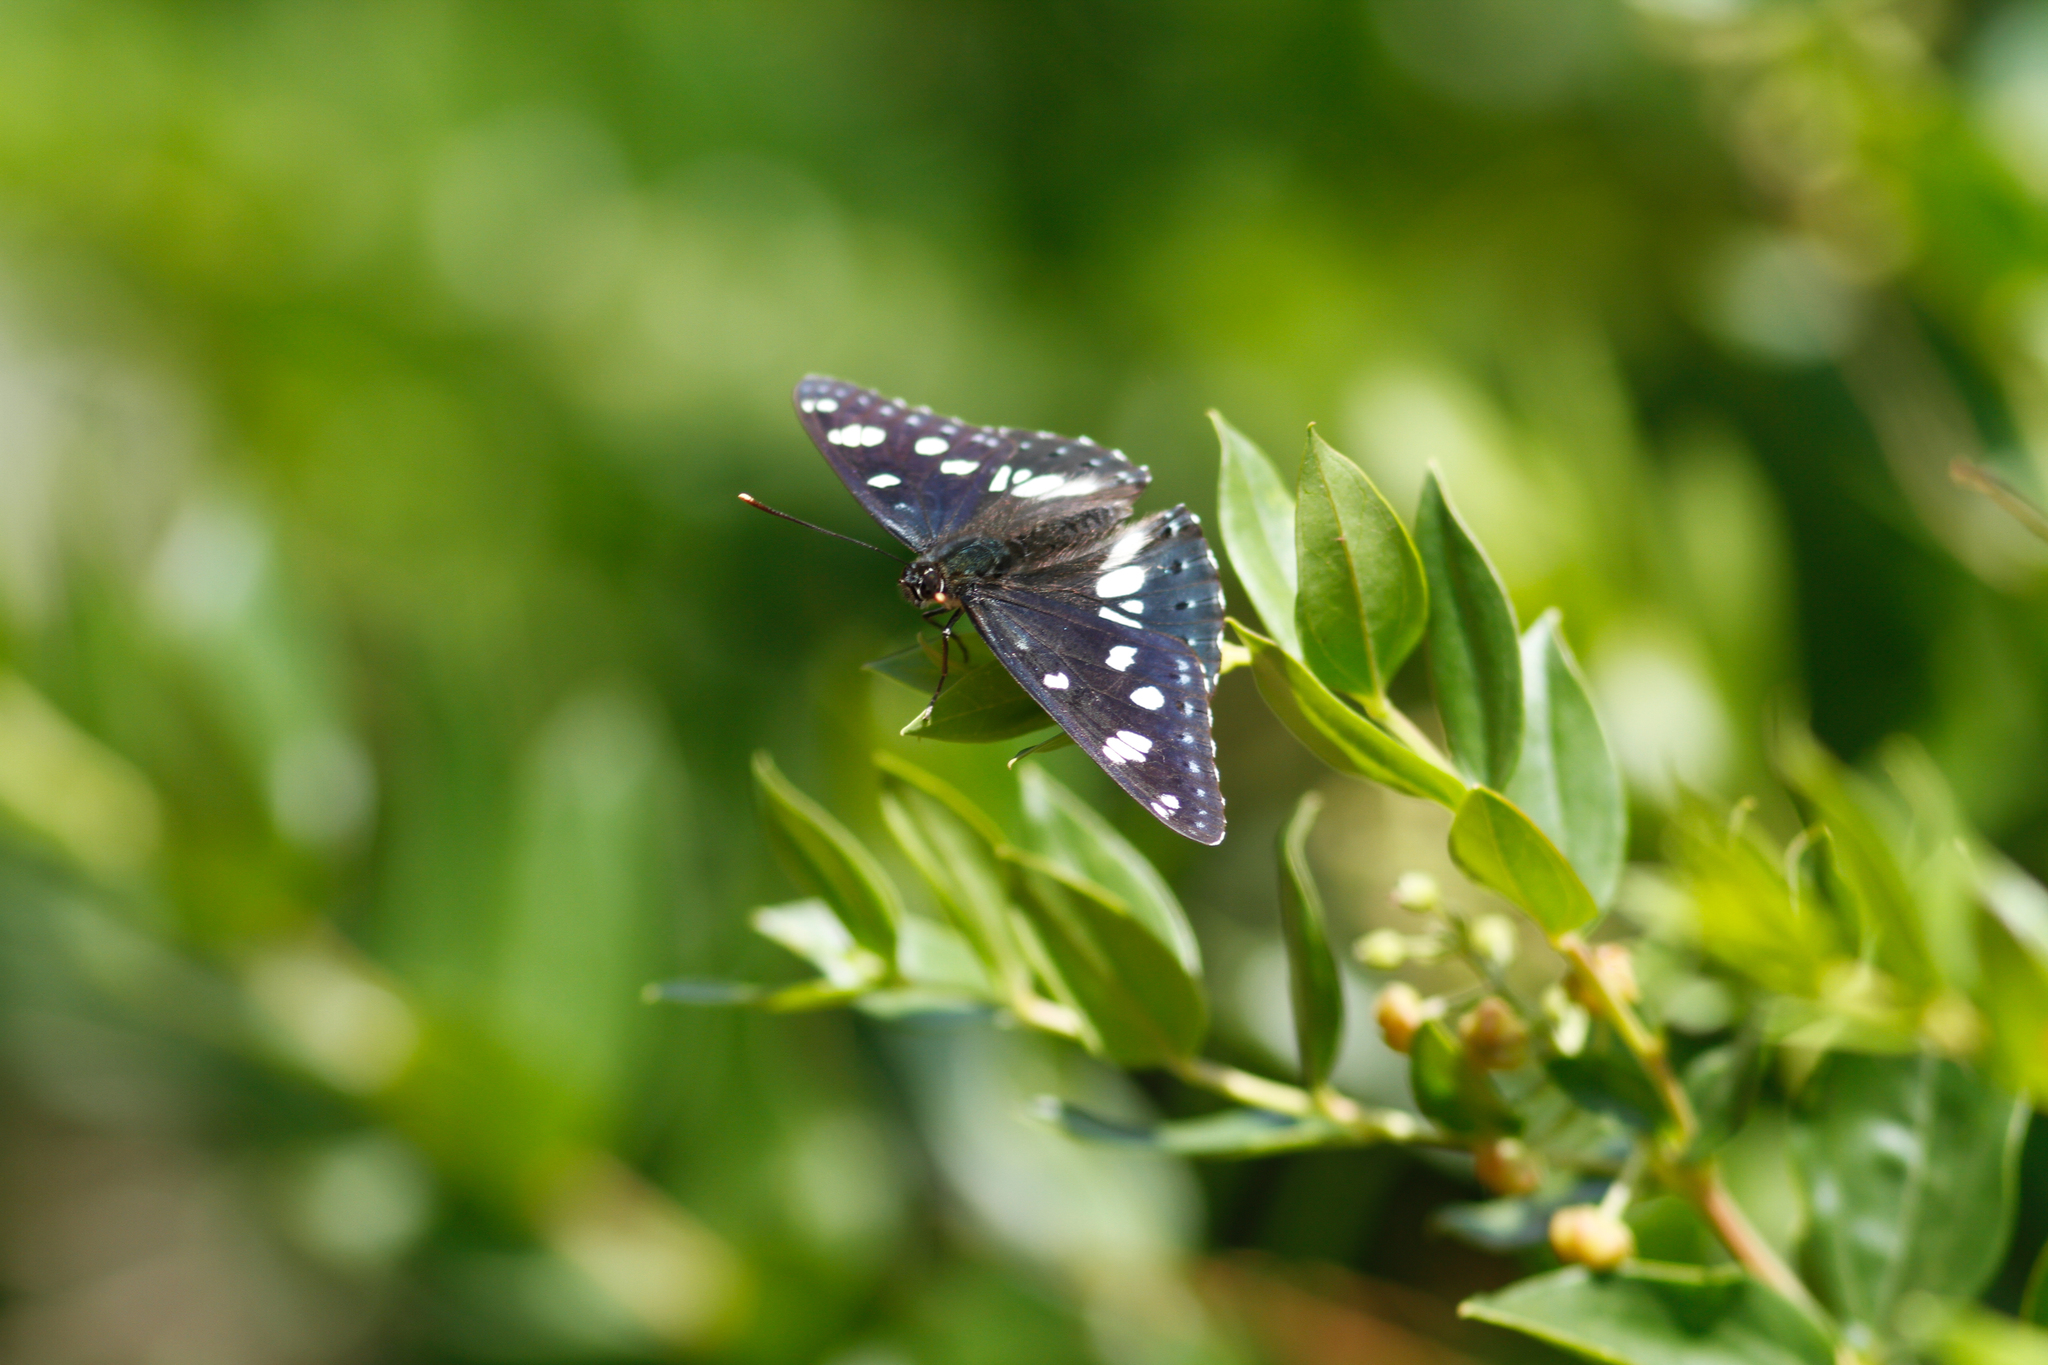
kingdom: Animalia
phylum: Arthropoda
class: Insecta
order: Lepidoptera
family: Nymphalidae
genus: Limenitis
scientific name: Limenitis reducta
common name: Southern white admiral
